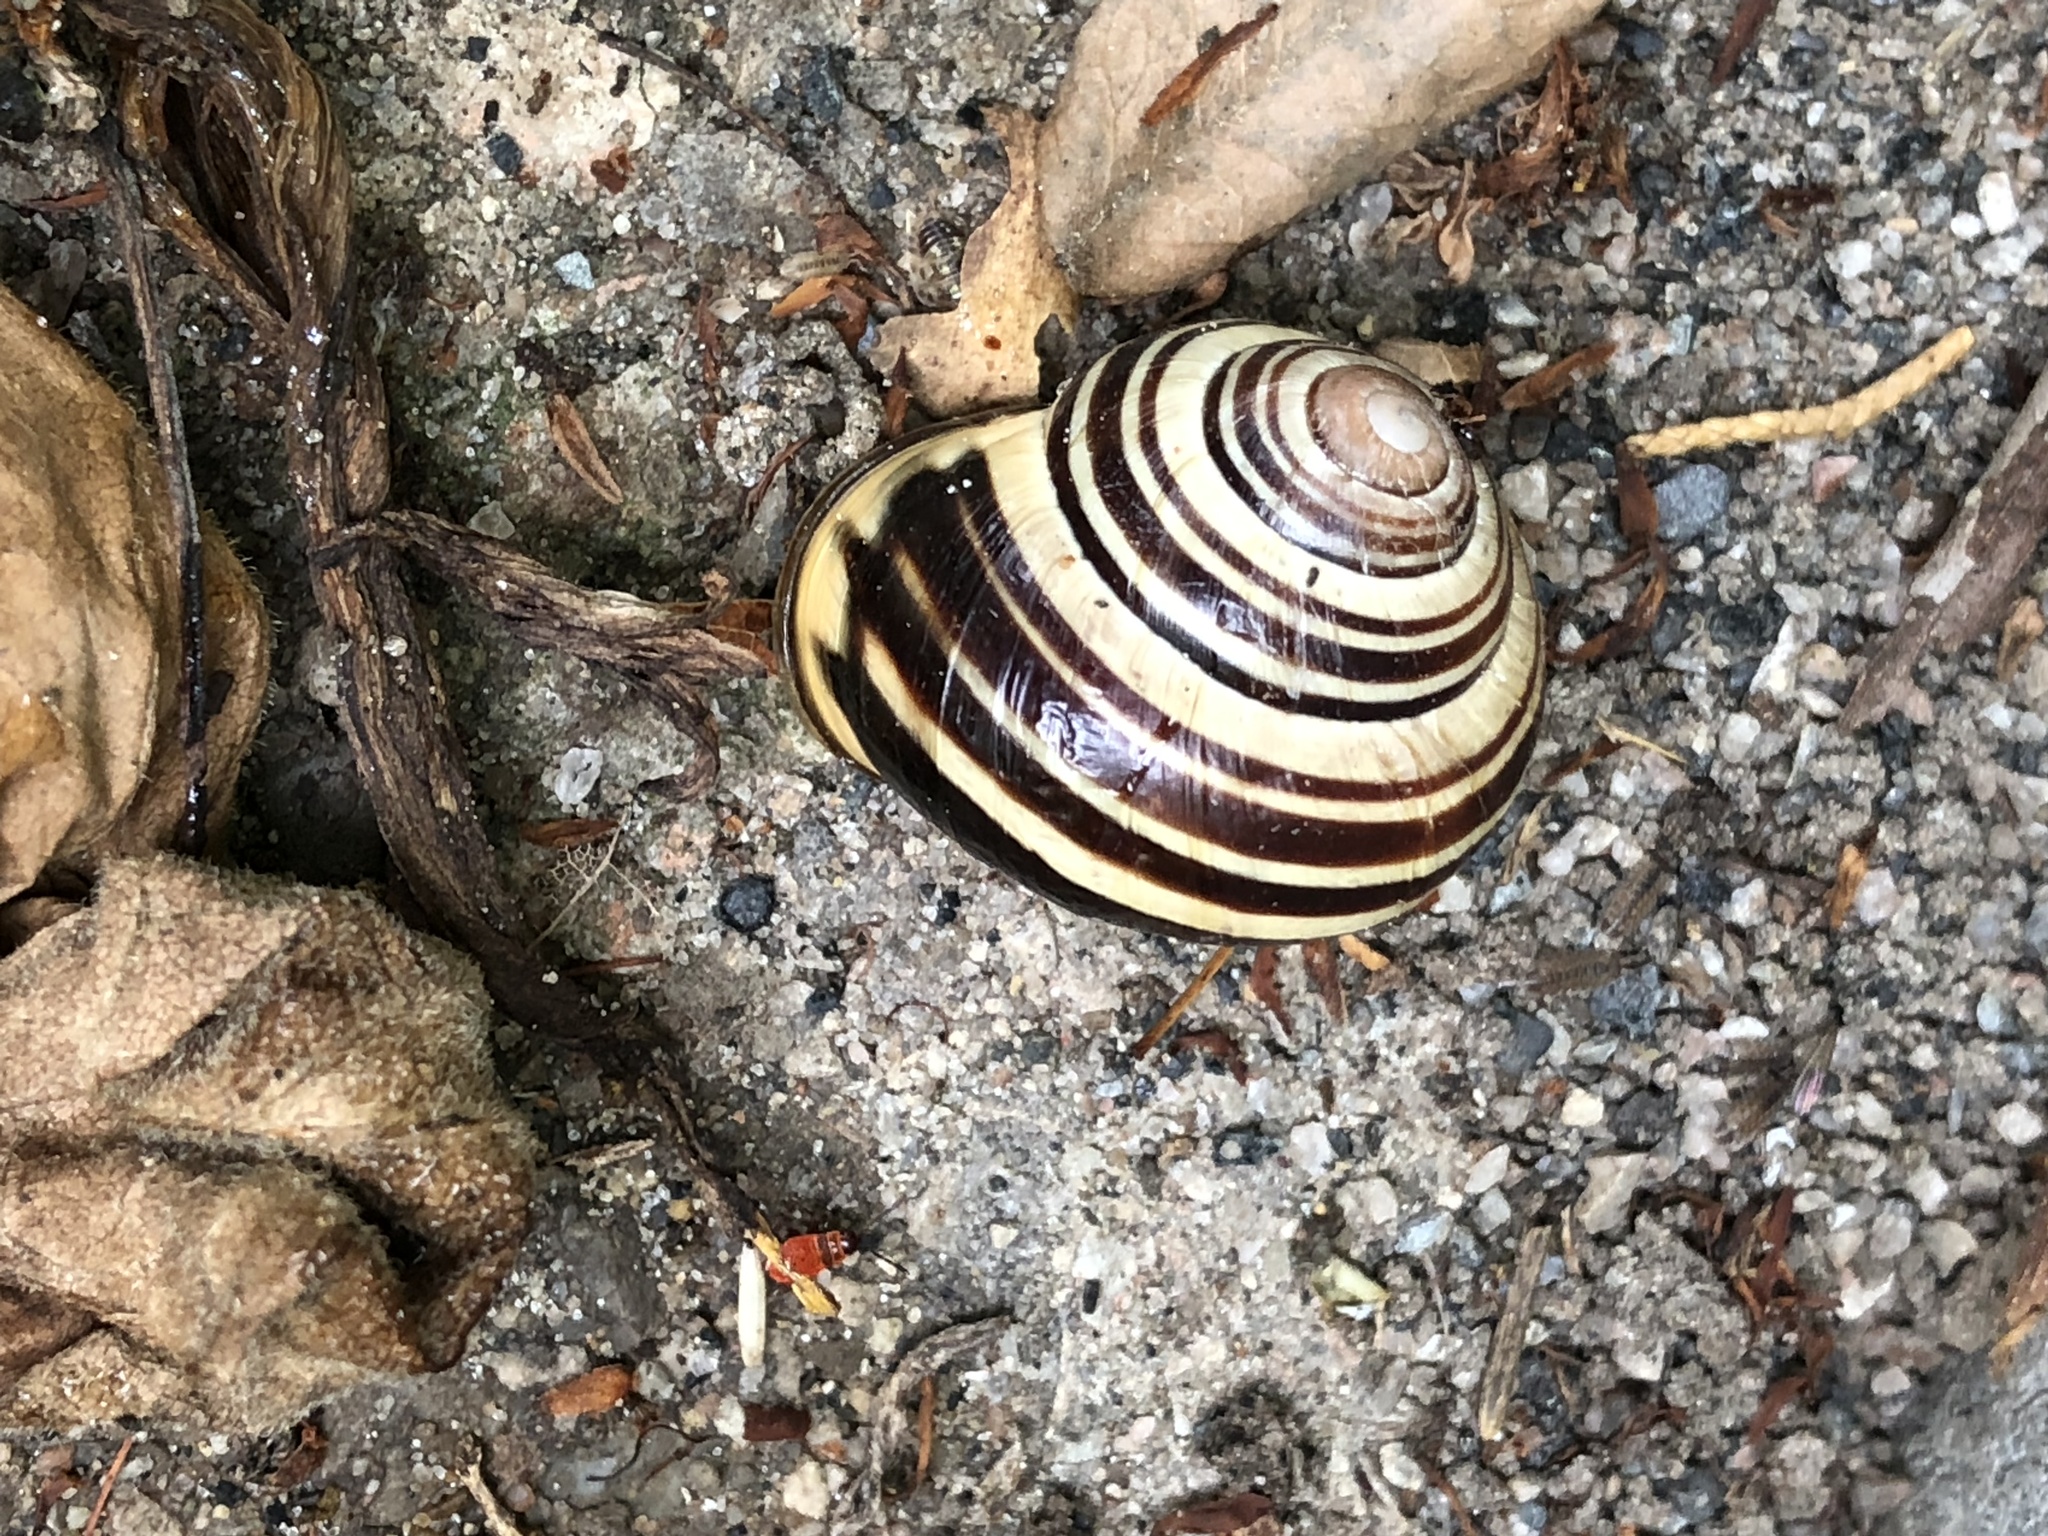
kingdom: Animalia
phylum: Mollusca
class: Gastropoda
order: Stylommatophora
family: Helicidae
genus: Cepaea
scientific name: Cepaea nemoralis
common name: Grovesnail
